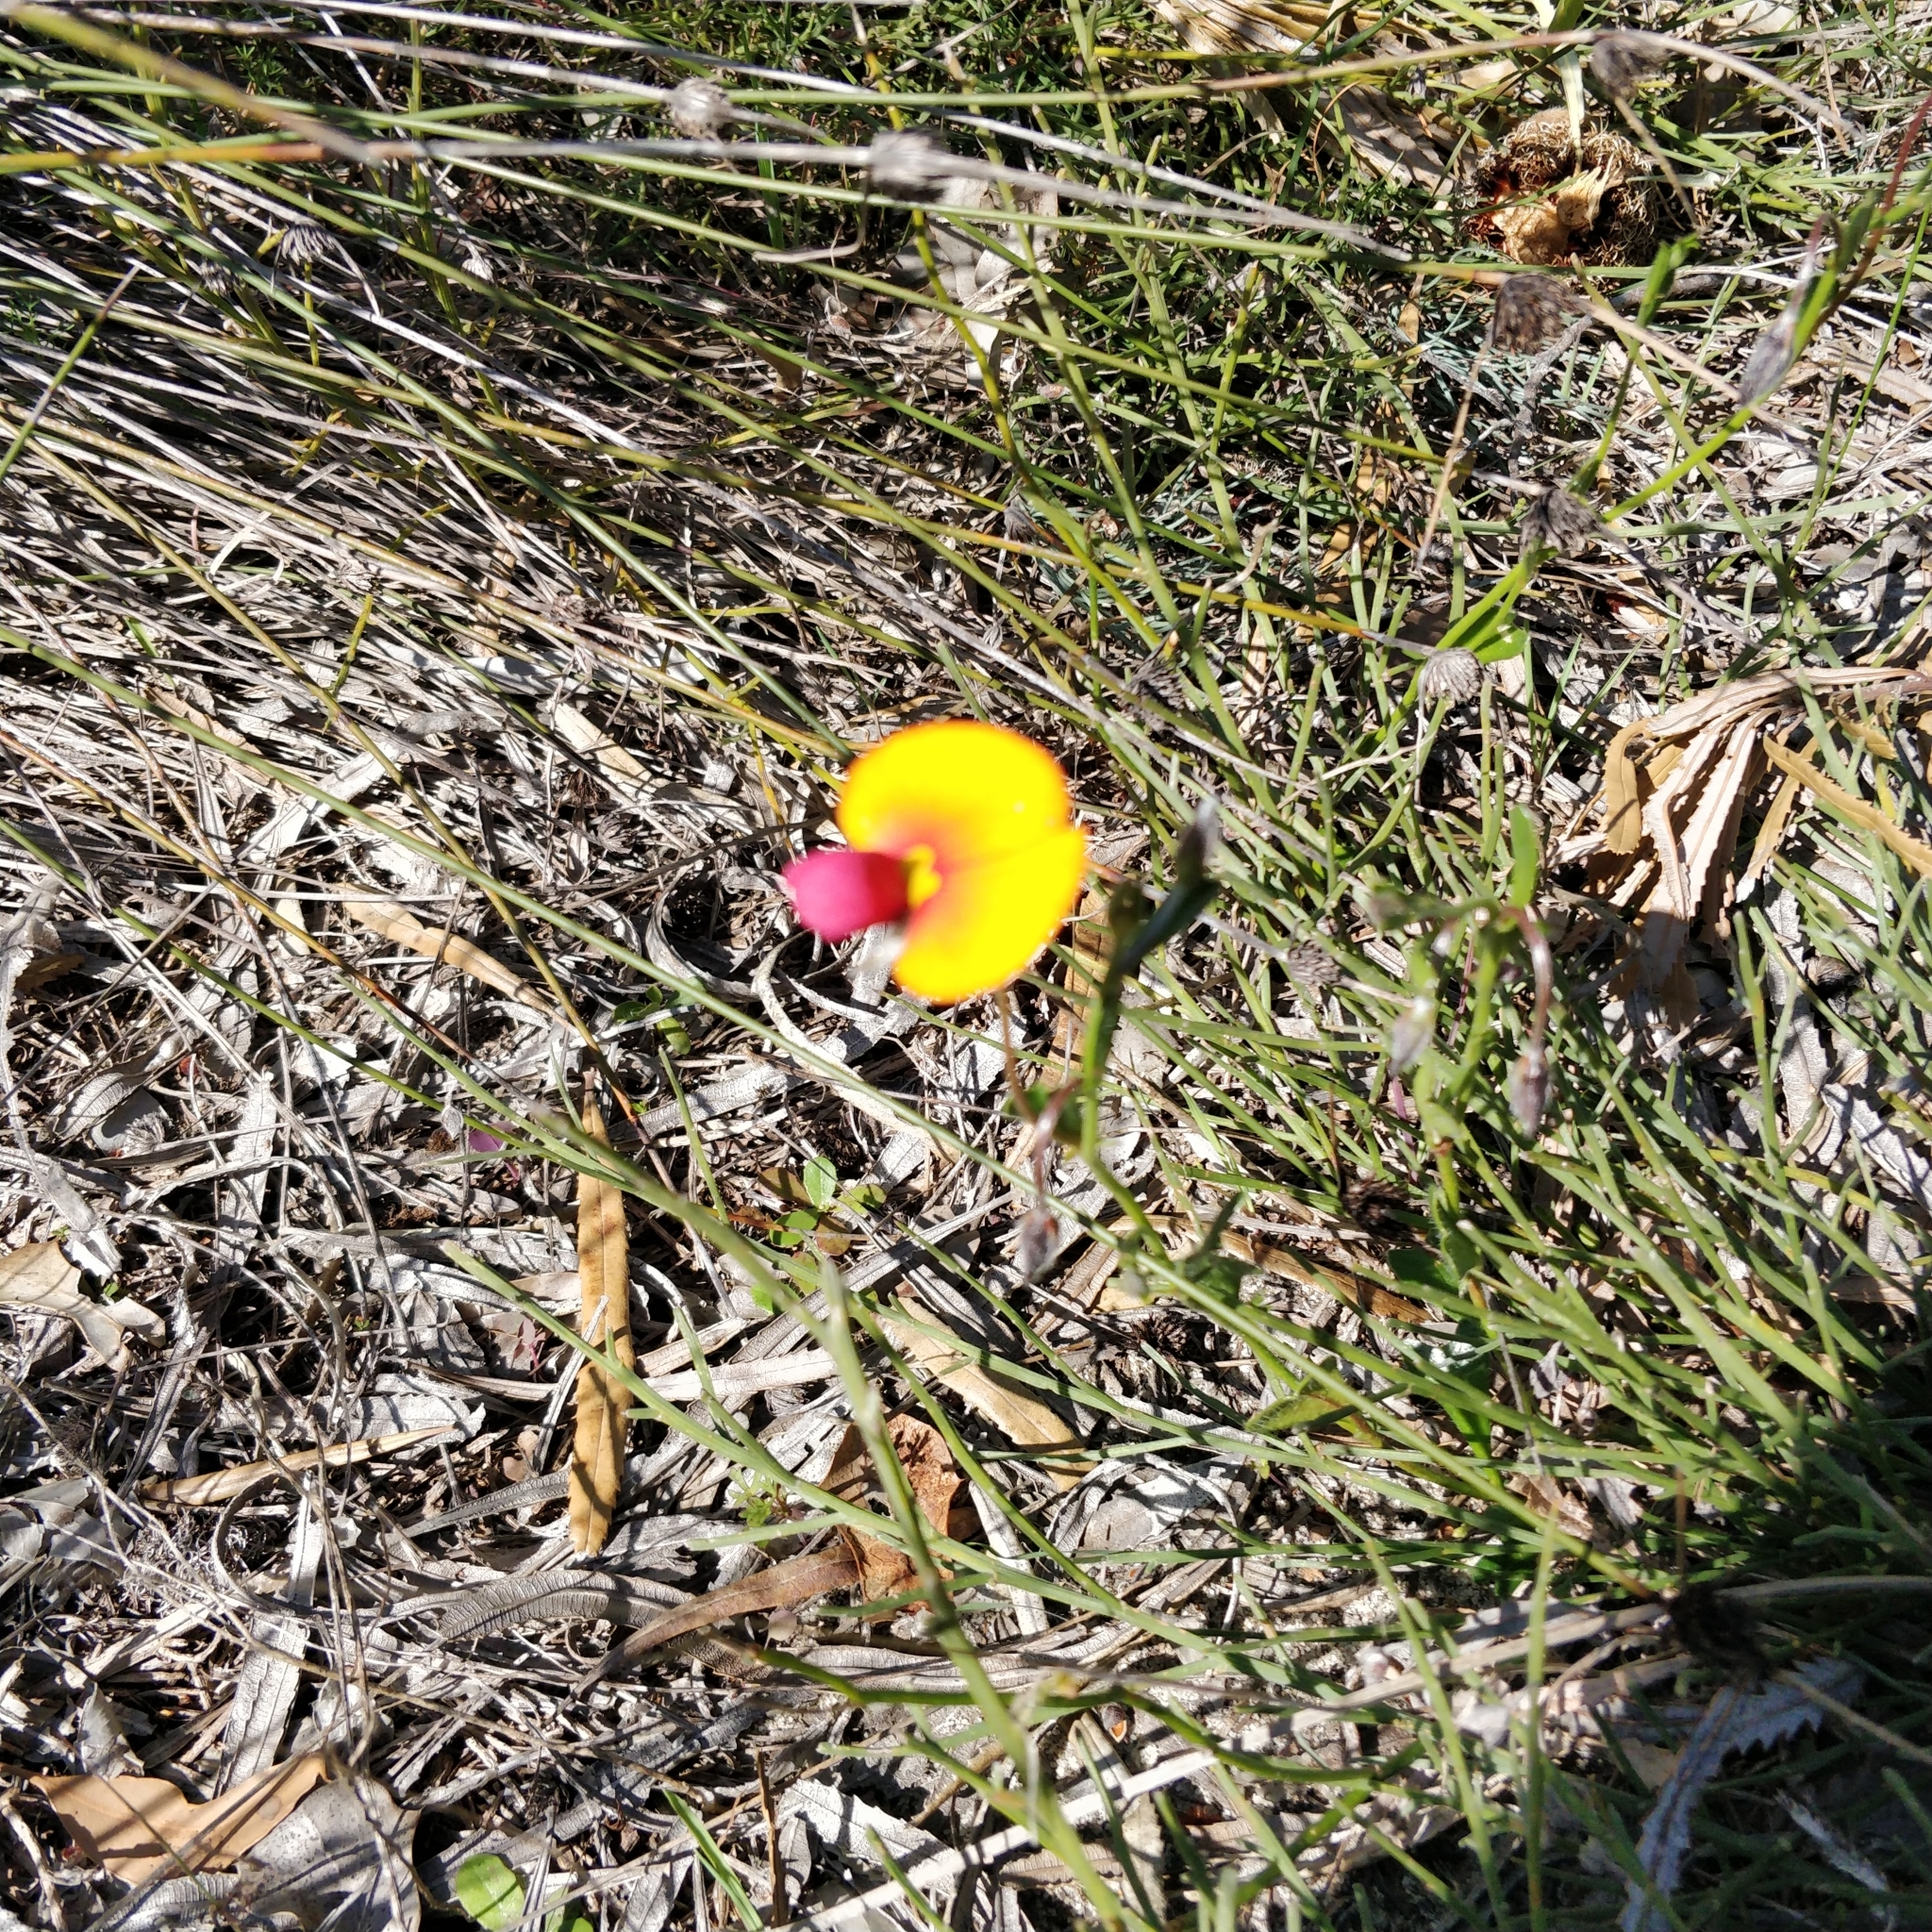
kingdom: Plantae
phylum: Tracheophyta
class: Magnoliopsida
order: Fabales
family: Fabaceae
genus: Isotropis
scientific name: Isotropis cuneifolia
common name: Granny bonnets
